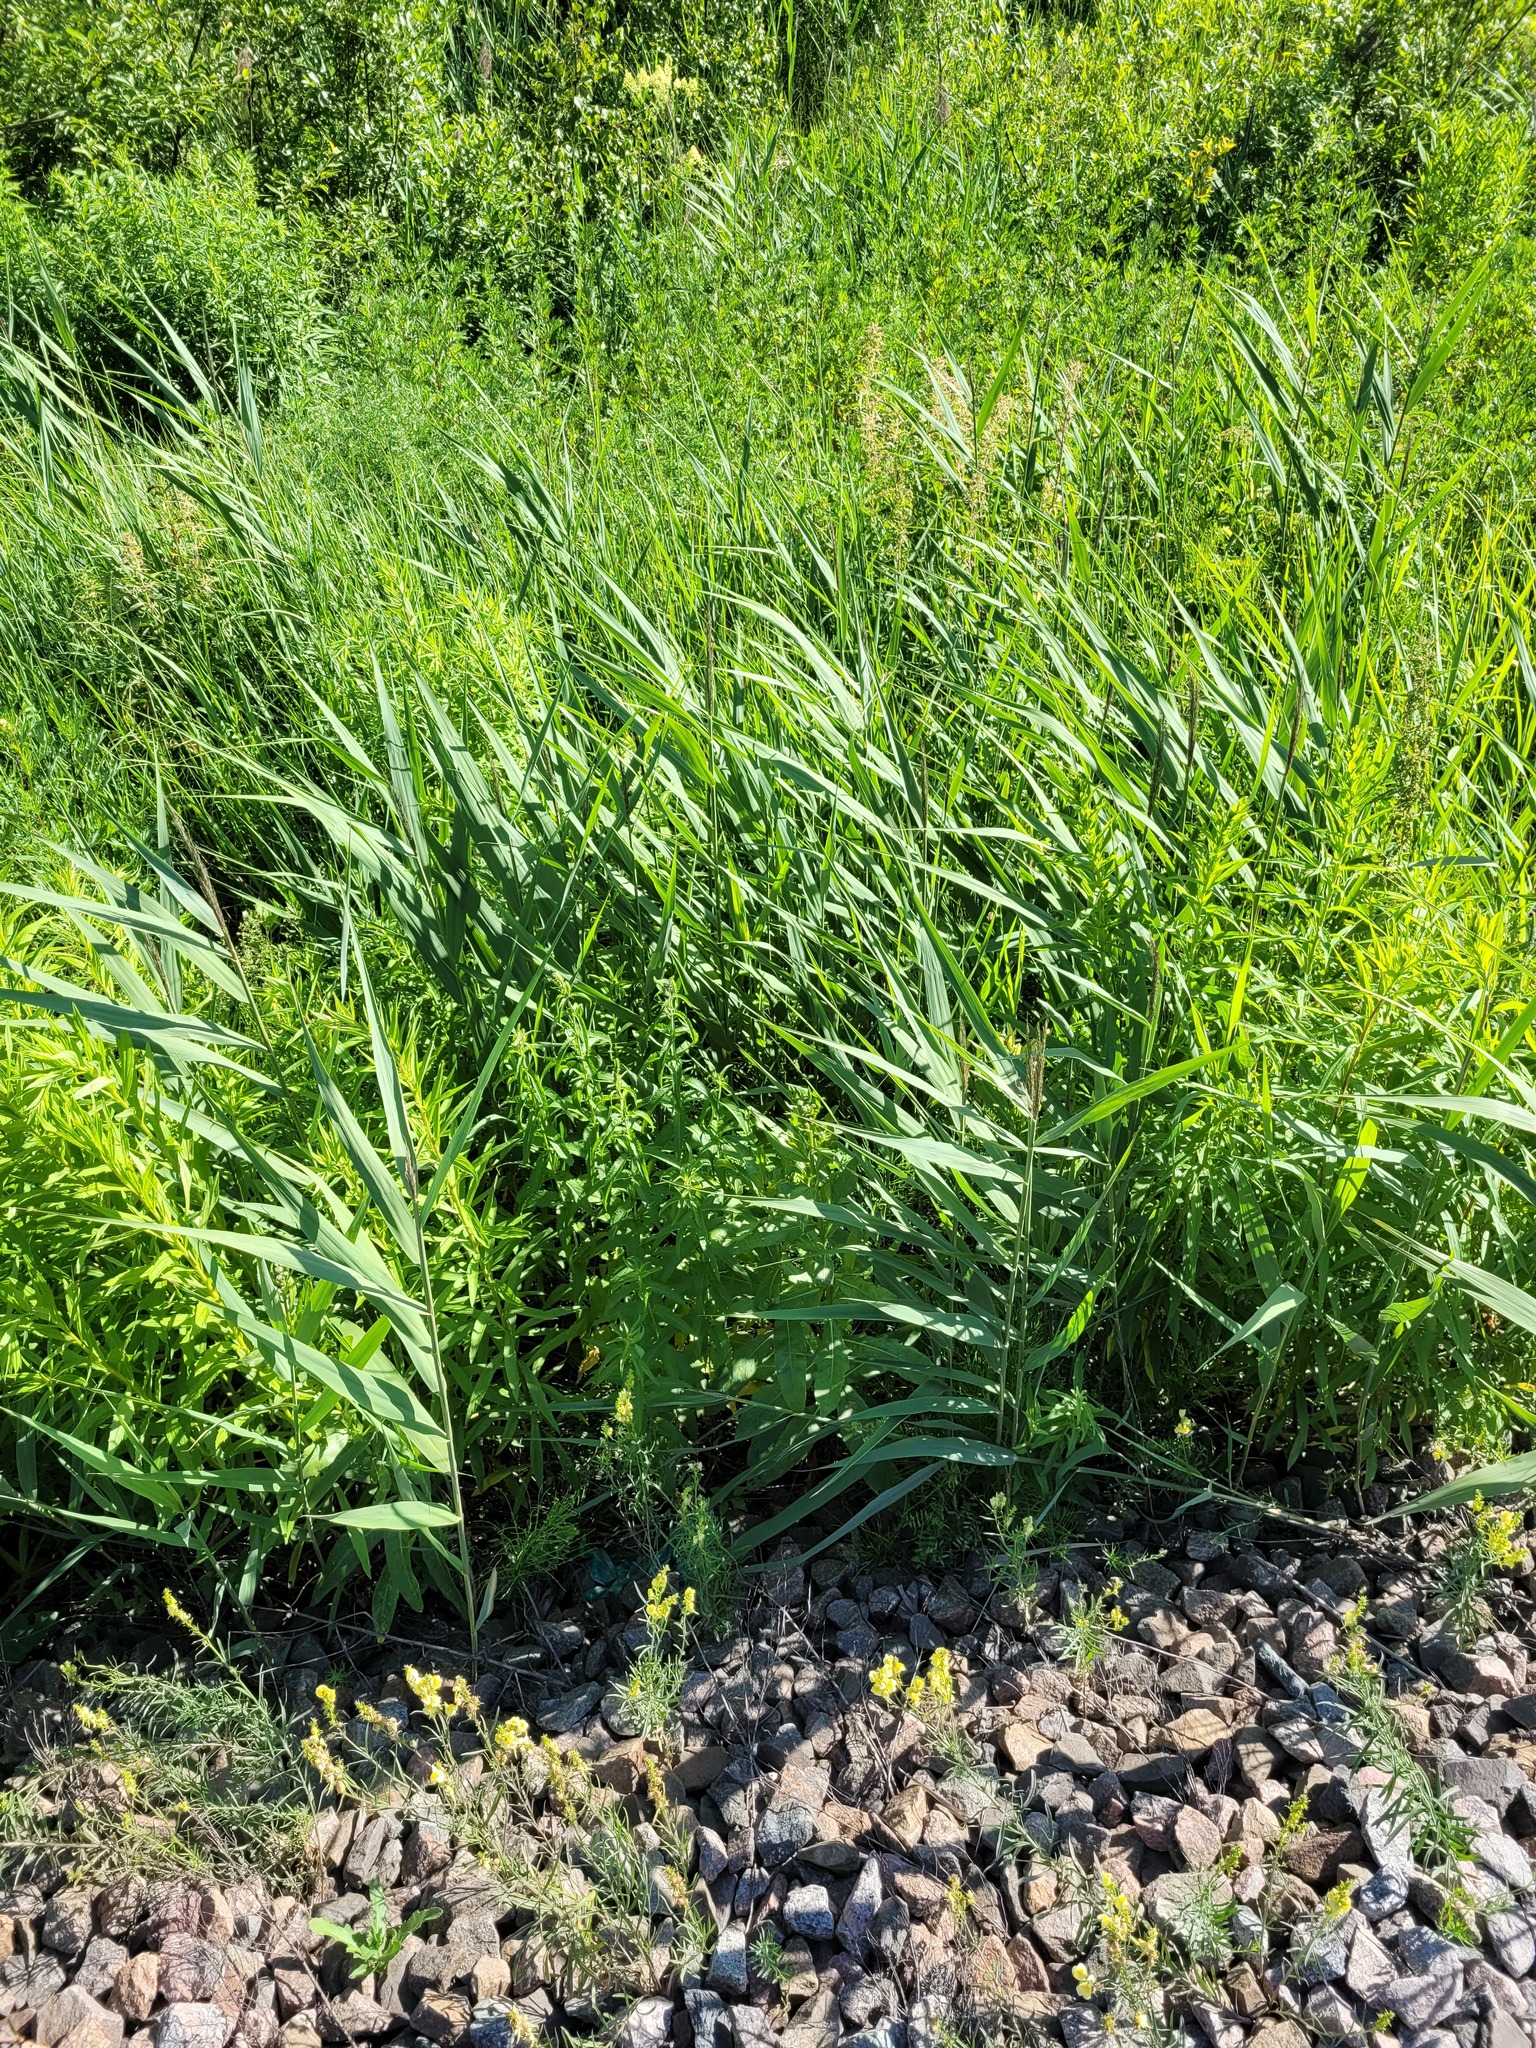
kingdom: Plantae
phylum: Tracheophyta
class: Liliopsida
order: Poales
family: Poaceae
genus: Phragmites
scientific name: Phragmites australis
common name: Common reed
